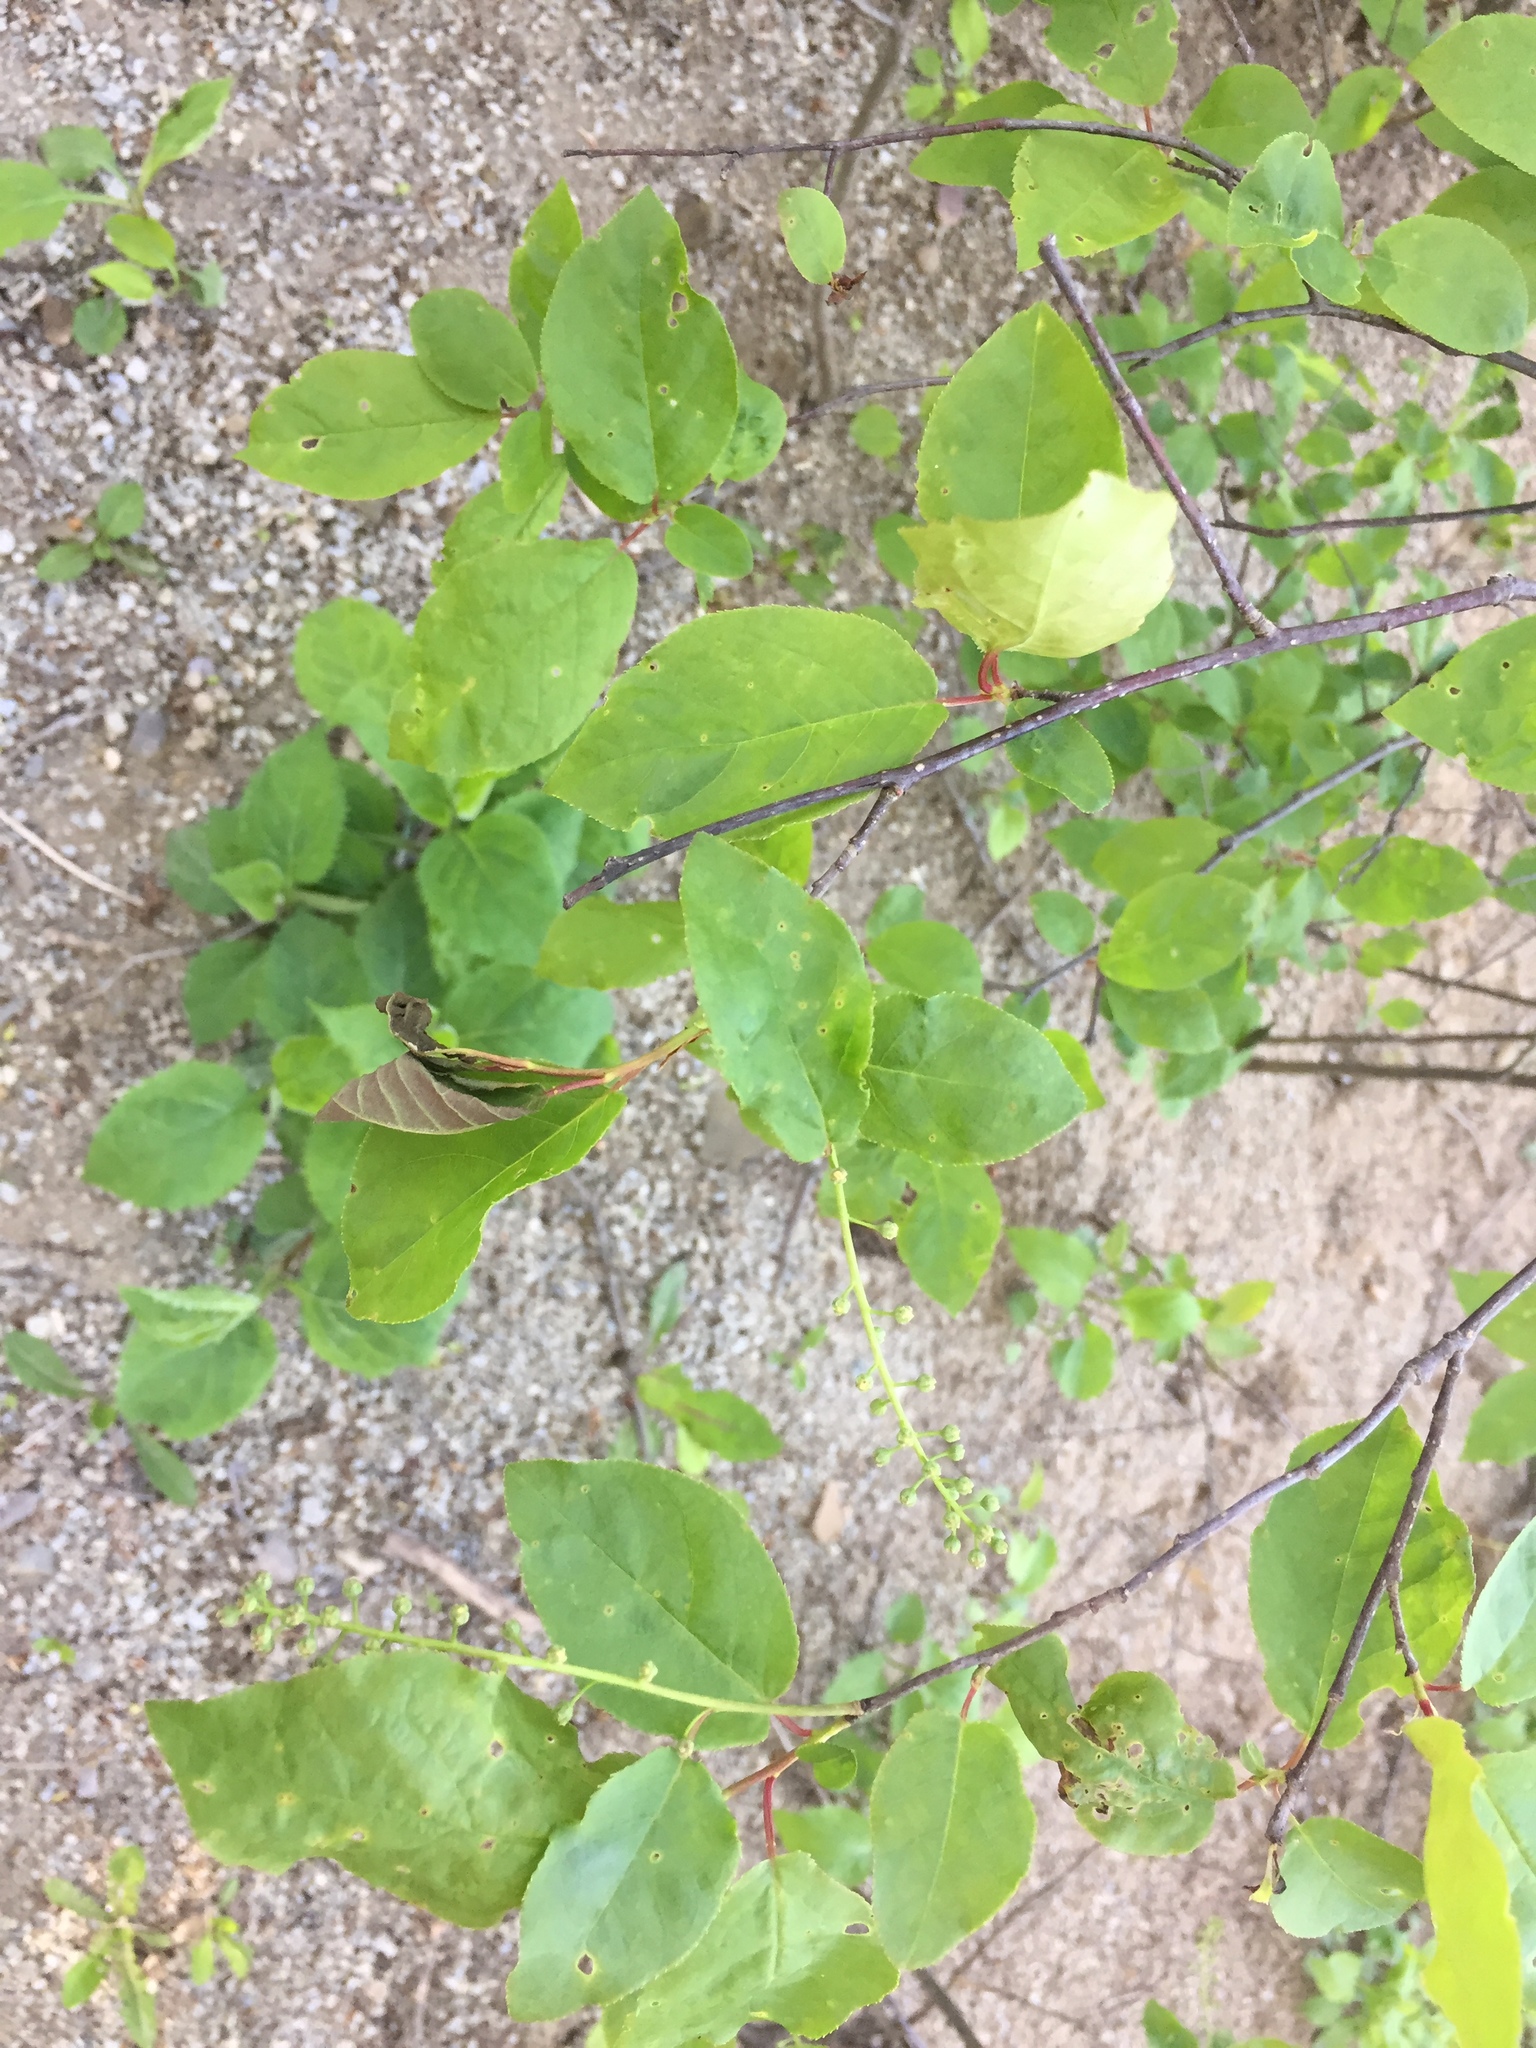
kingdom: Plantae
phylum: Tracheophyta
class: Magnoliopsida
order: Rosales
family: Rosaceae
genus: Prunus
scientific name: Prunus virginiana
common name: Chokecherry
